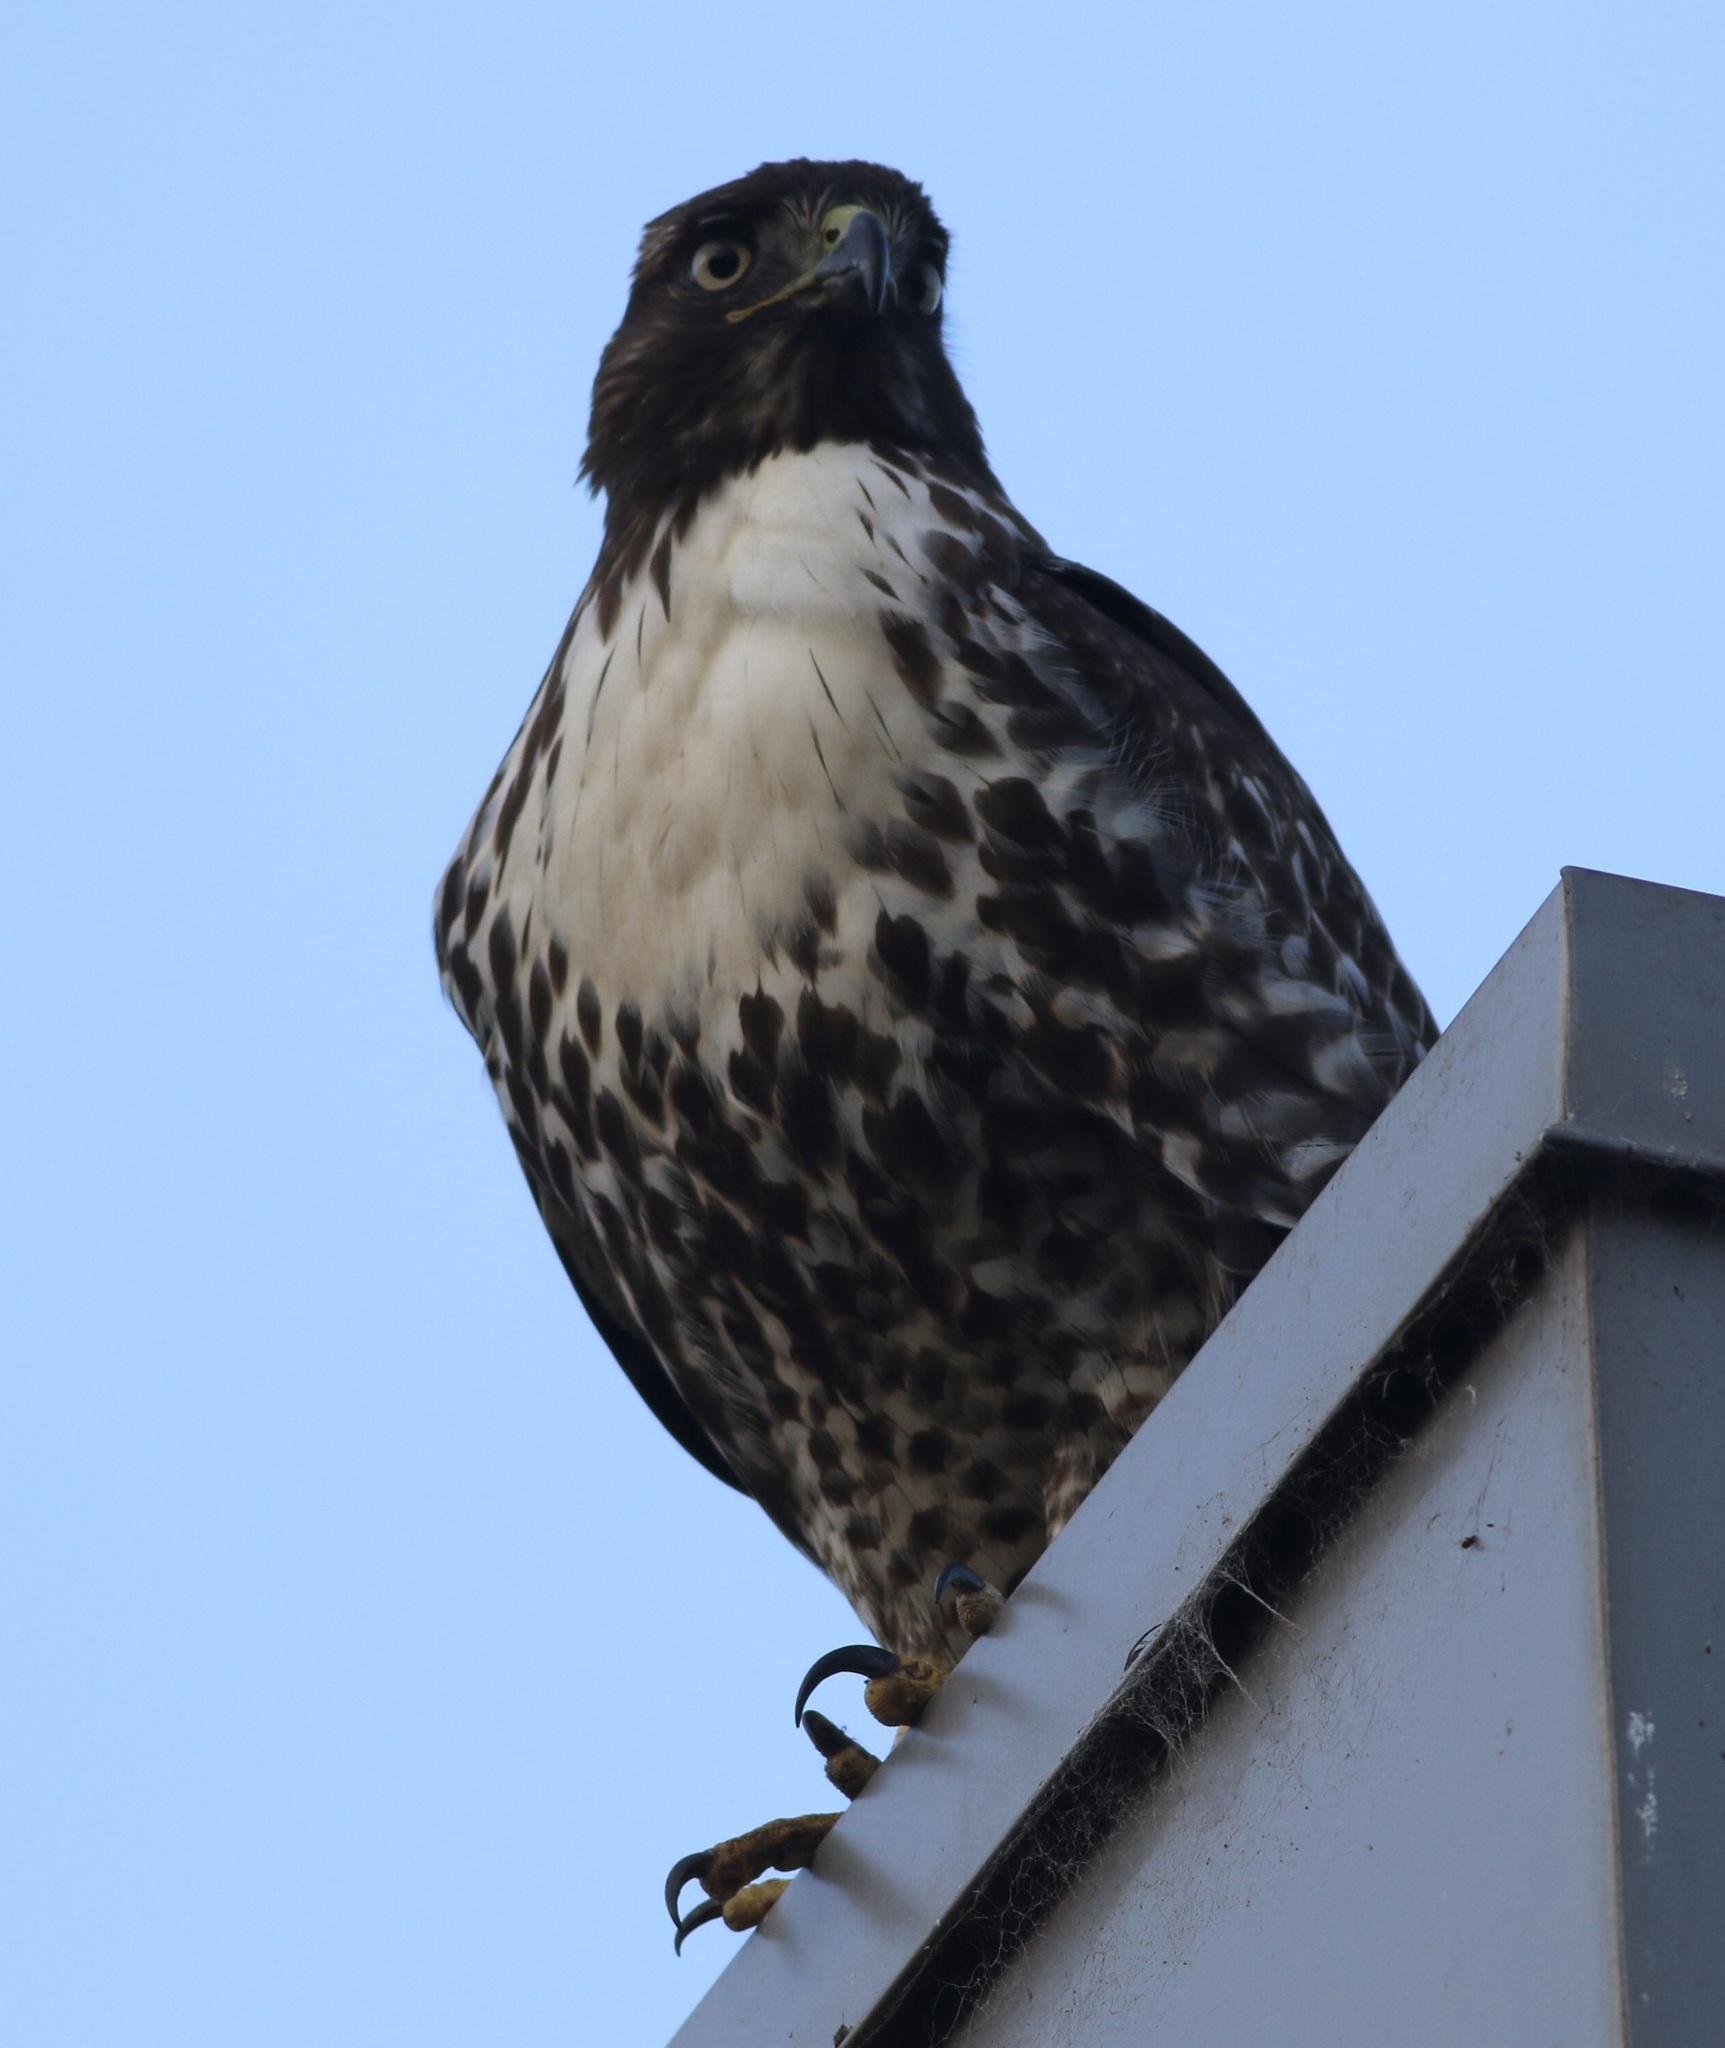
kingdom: Animalia
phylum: Chordata
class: Aves
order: Accipitriformes
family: Accipitridae
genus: Buteo
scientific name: Buteo jamaicensis
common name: Red-tailed hawk
